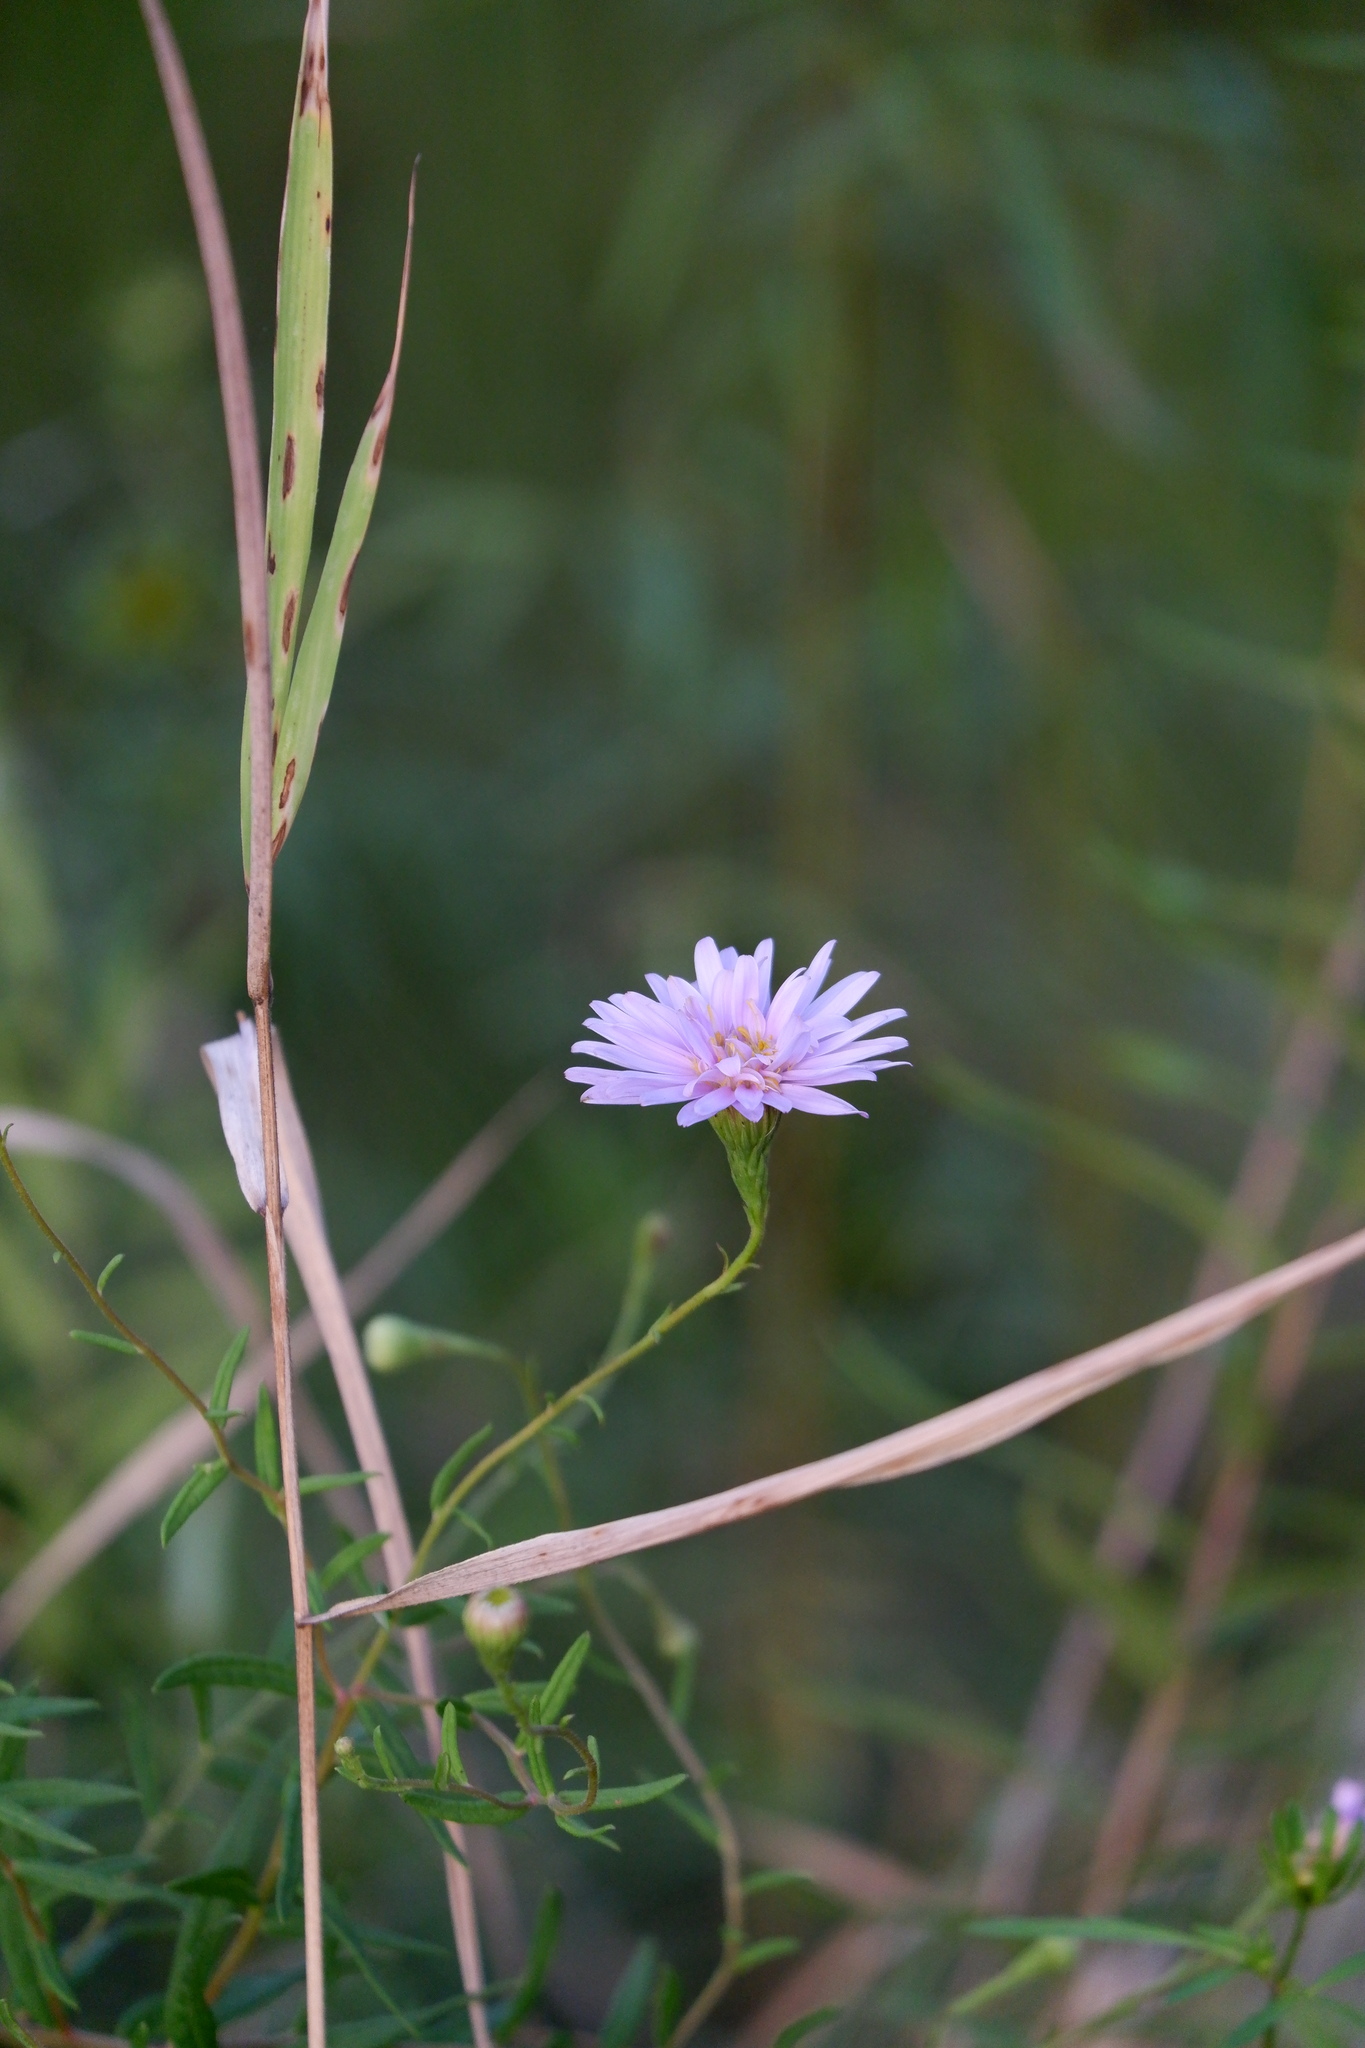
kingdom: Plantae
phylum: Tracheophyta
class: Magnoliopsida
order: Asterales
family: Asteraceae
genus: Oclemena
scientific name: Oclemena nemoralis
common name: Bog aster
